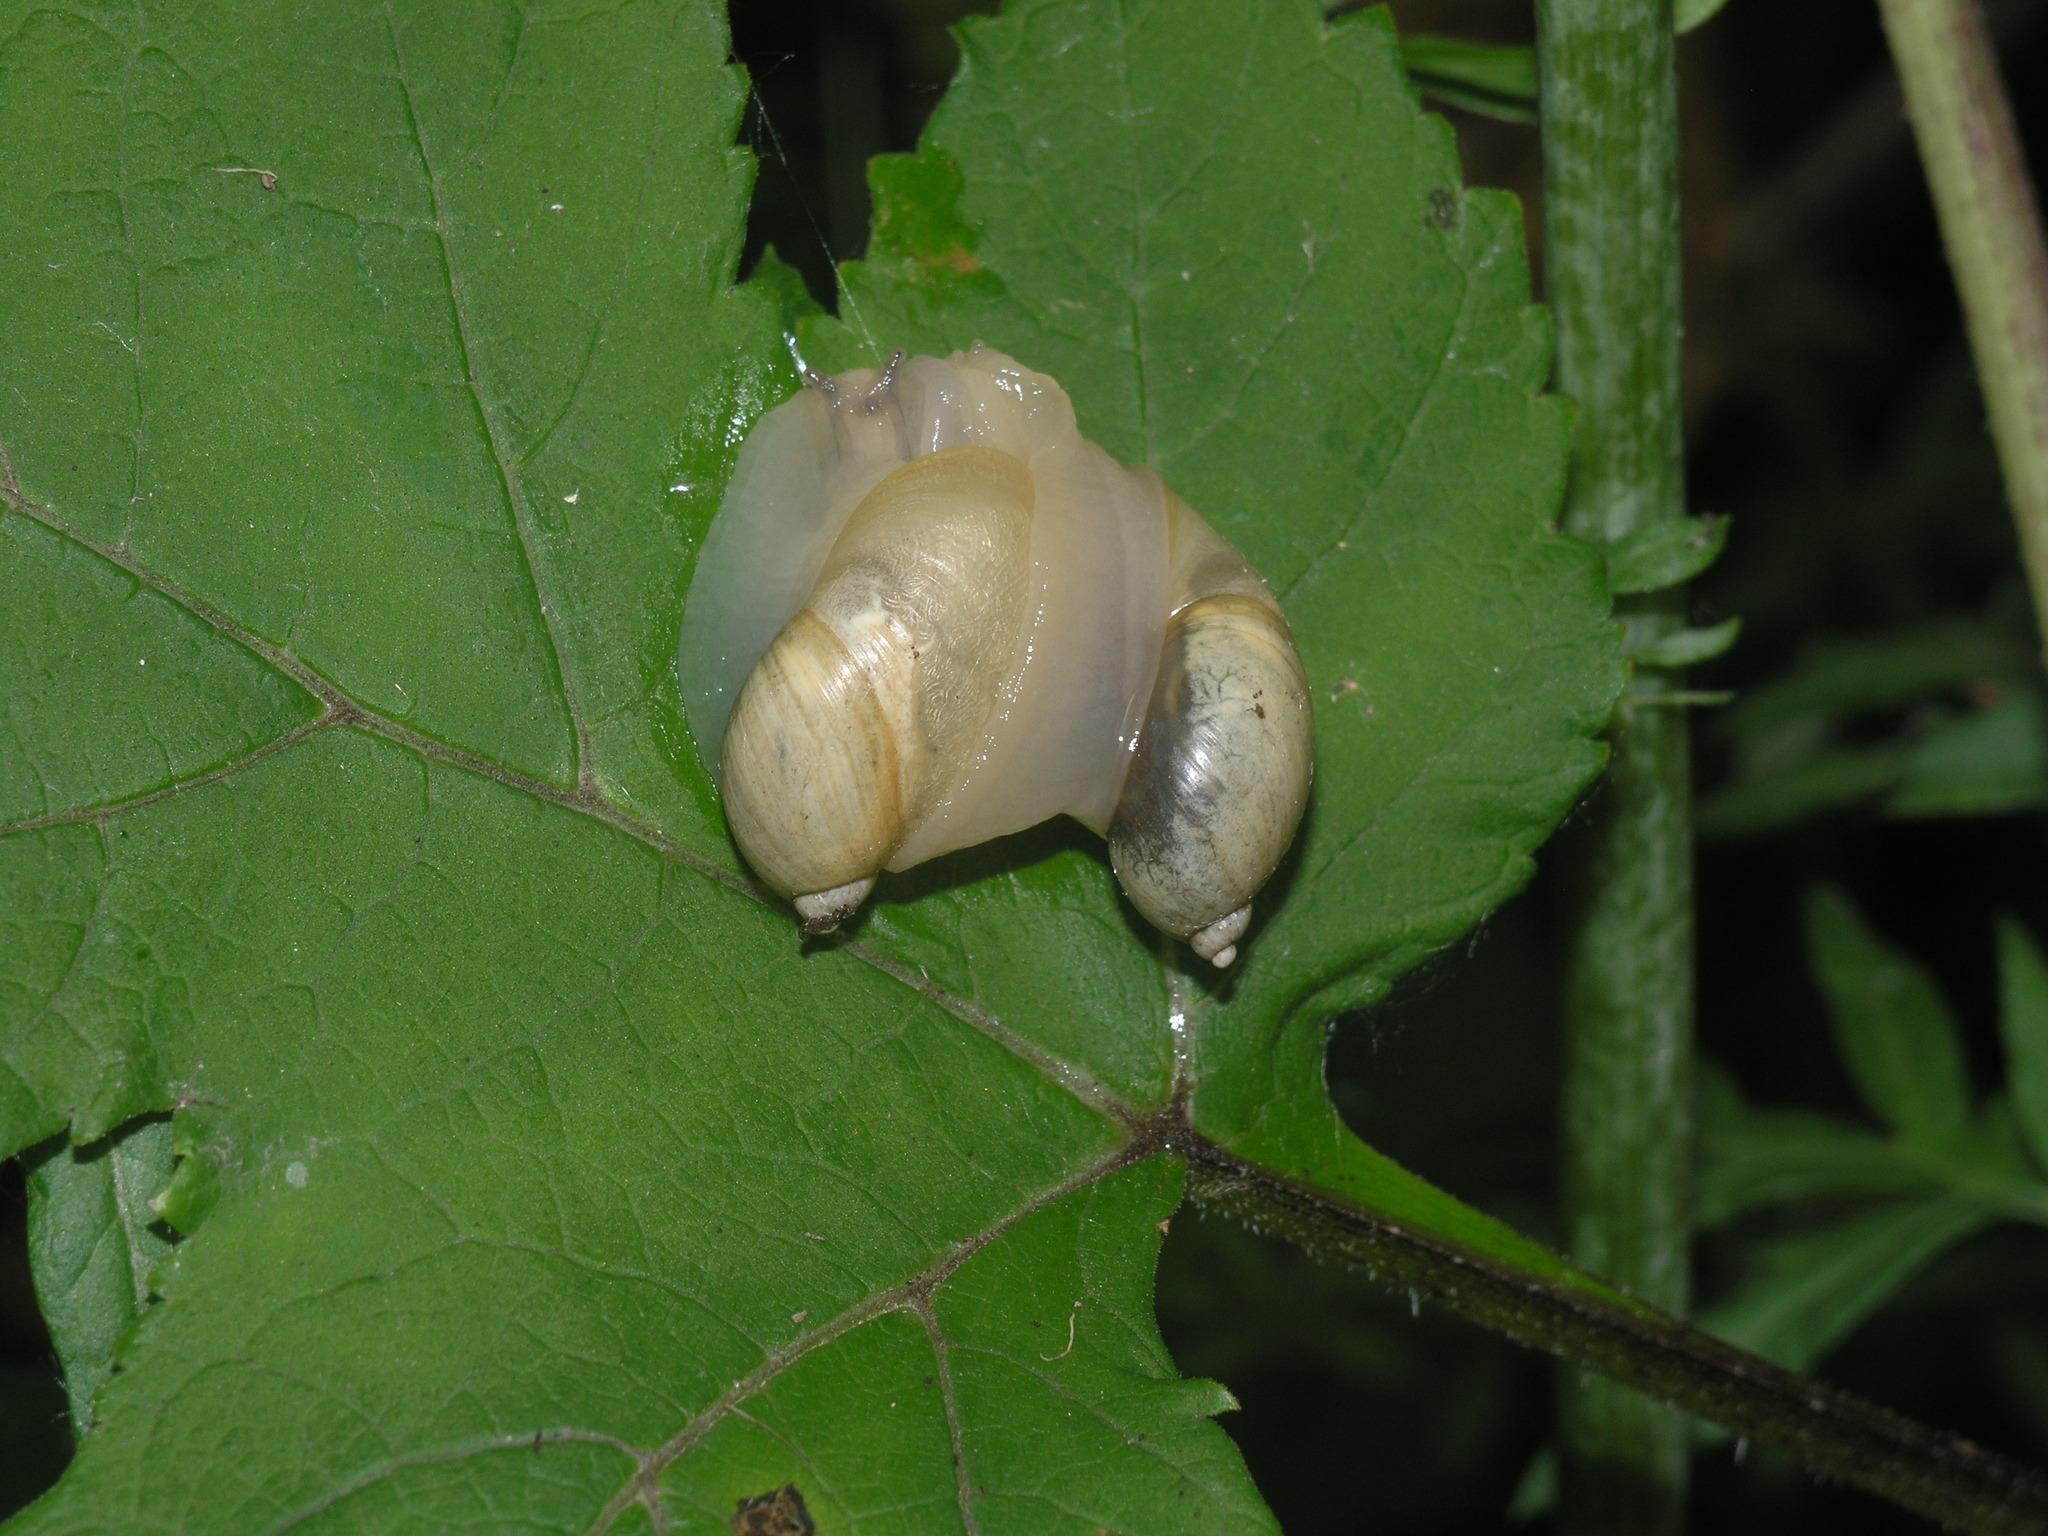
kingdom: Animalia
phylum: Mollusca
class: Gastropoda
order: Stylommatophora
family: Succineidae
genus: Succinea
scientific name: Succinea lauta
